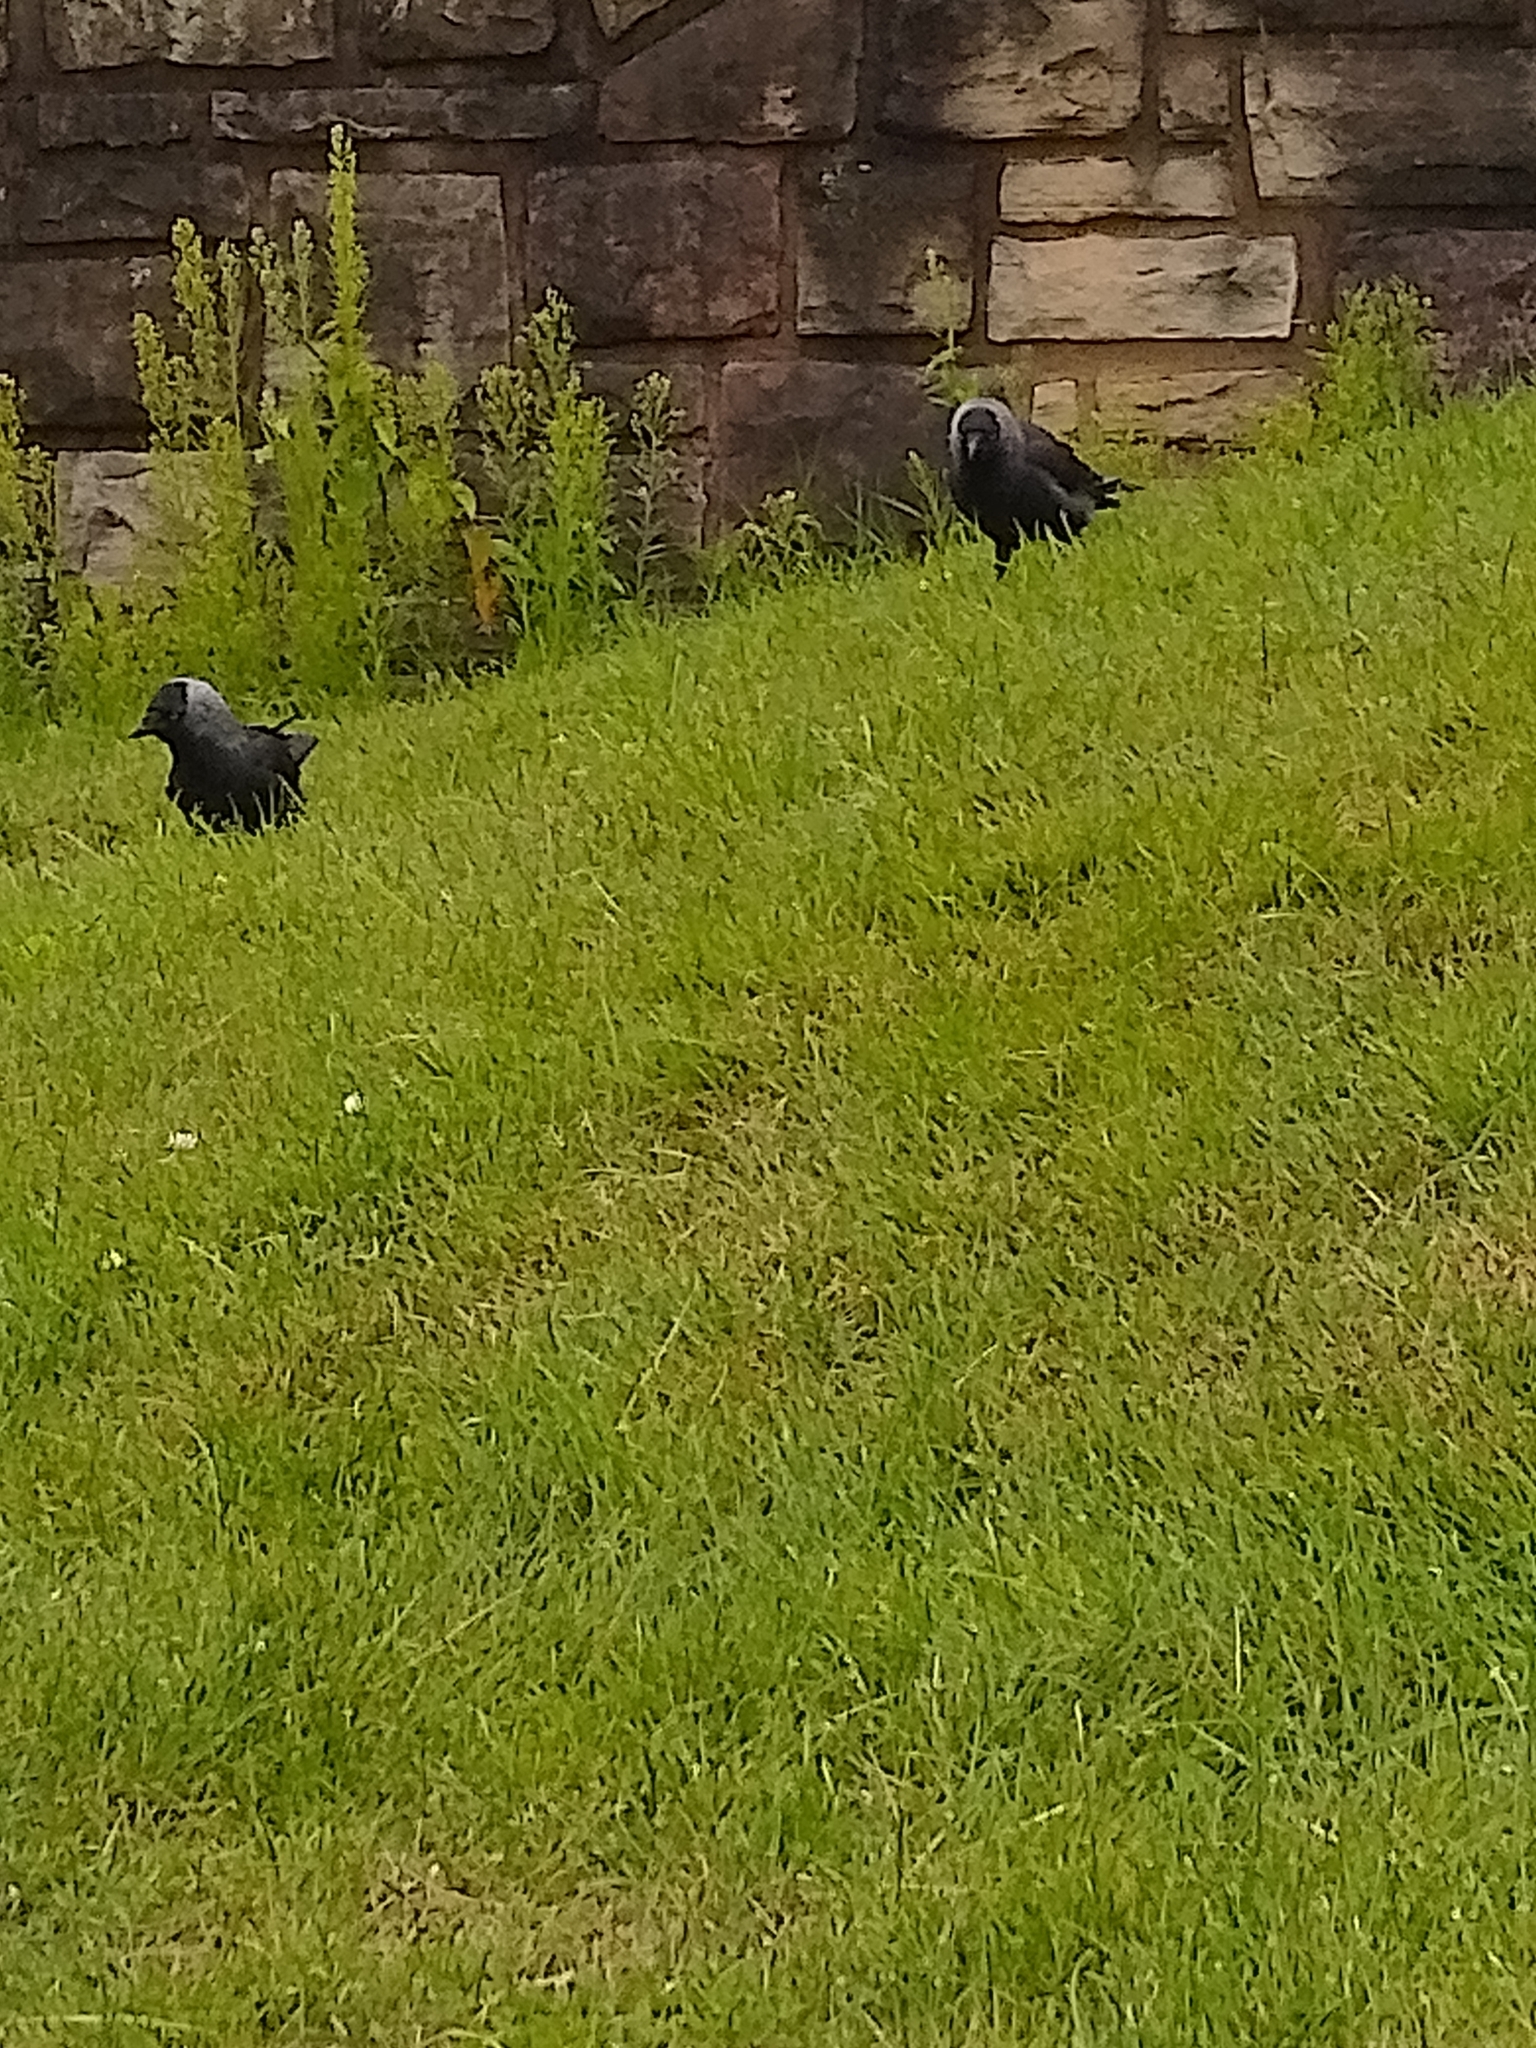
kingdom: Animalia
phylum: Chordata
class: Aves
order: Passeriformes
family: Corvidae
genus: Coloeus
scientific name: Coloeus monedula
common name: Western jackdaw
